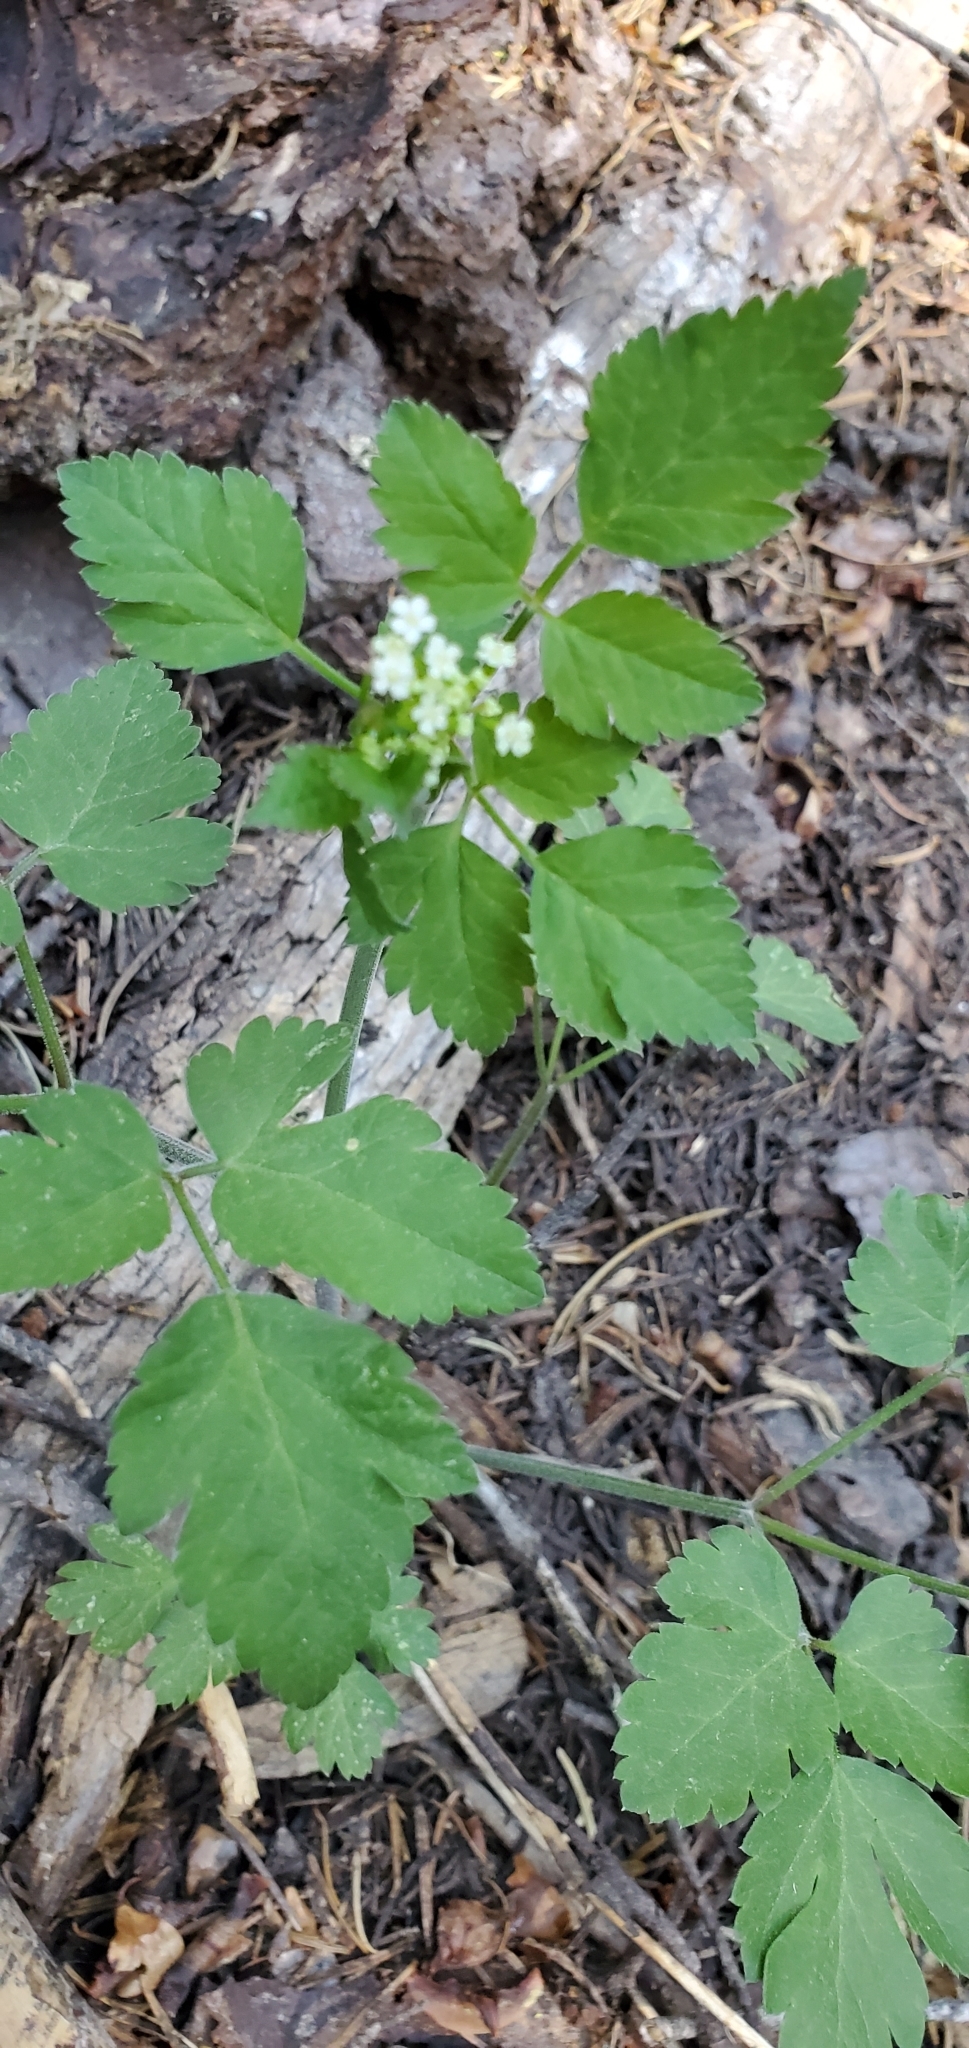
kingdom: Plantae
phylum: Tracheophyta
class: Magnoliopsida
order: Apiales
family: Apiaceae
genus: Osmorhiza
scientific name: Osmorhiza berteroi
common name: Mountain sweet cicely
